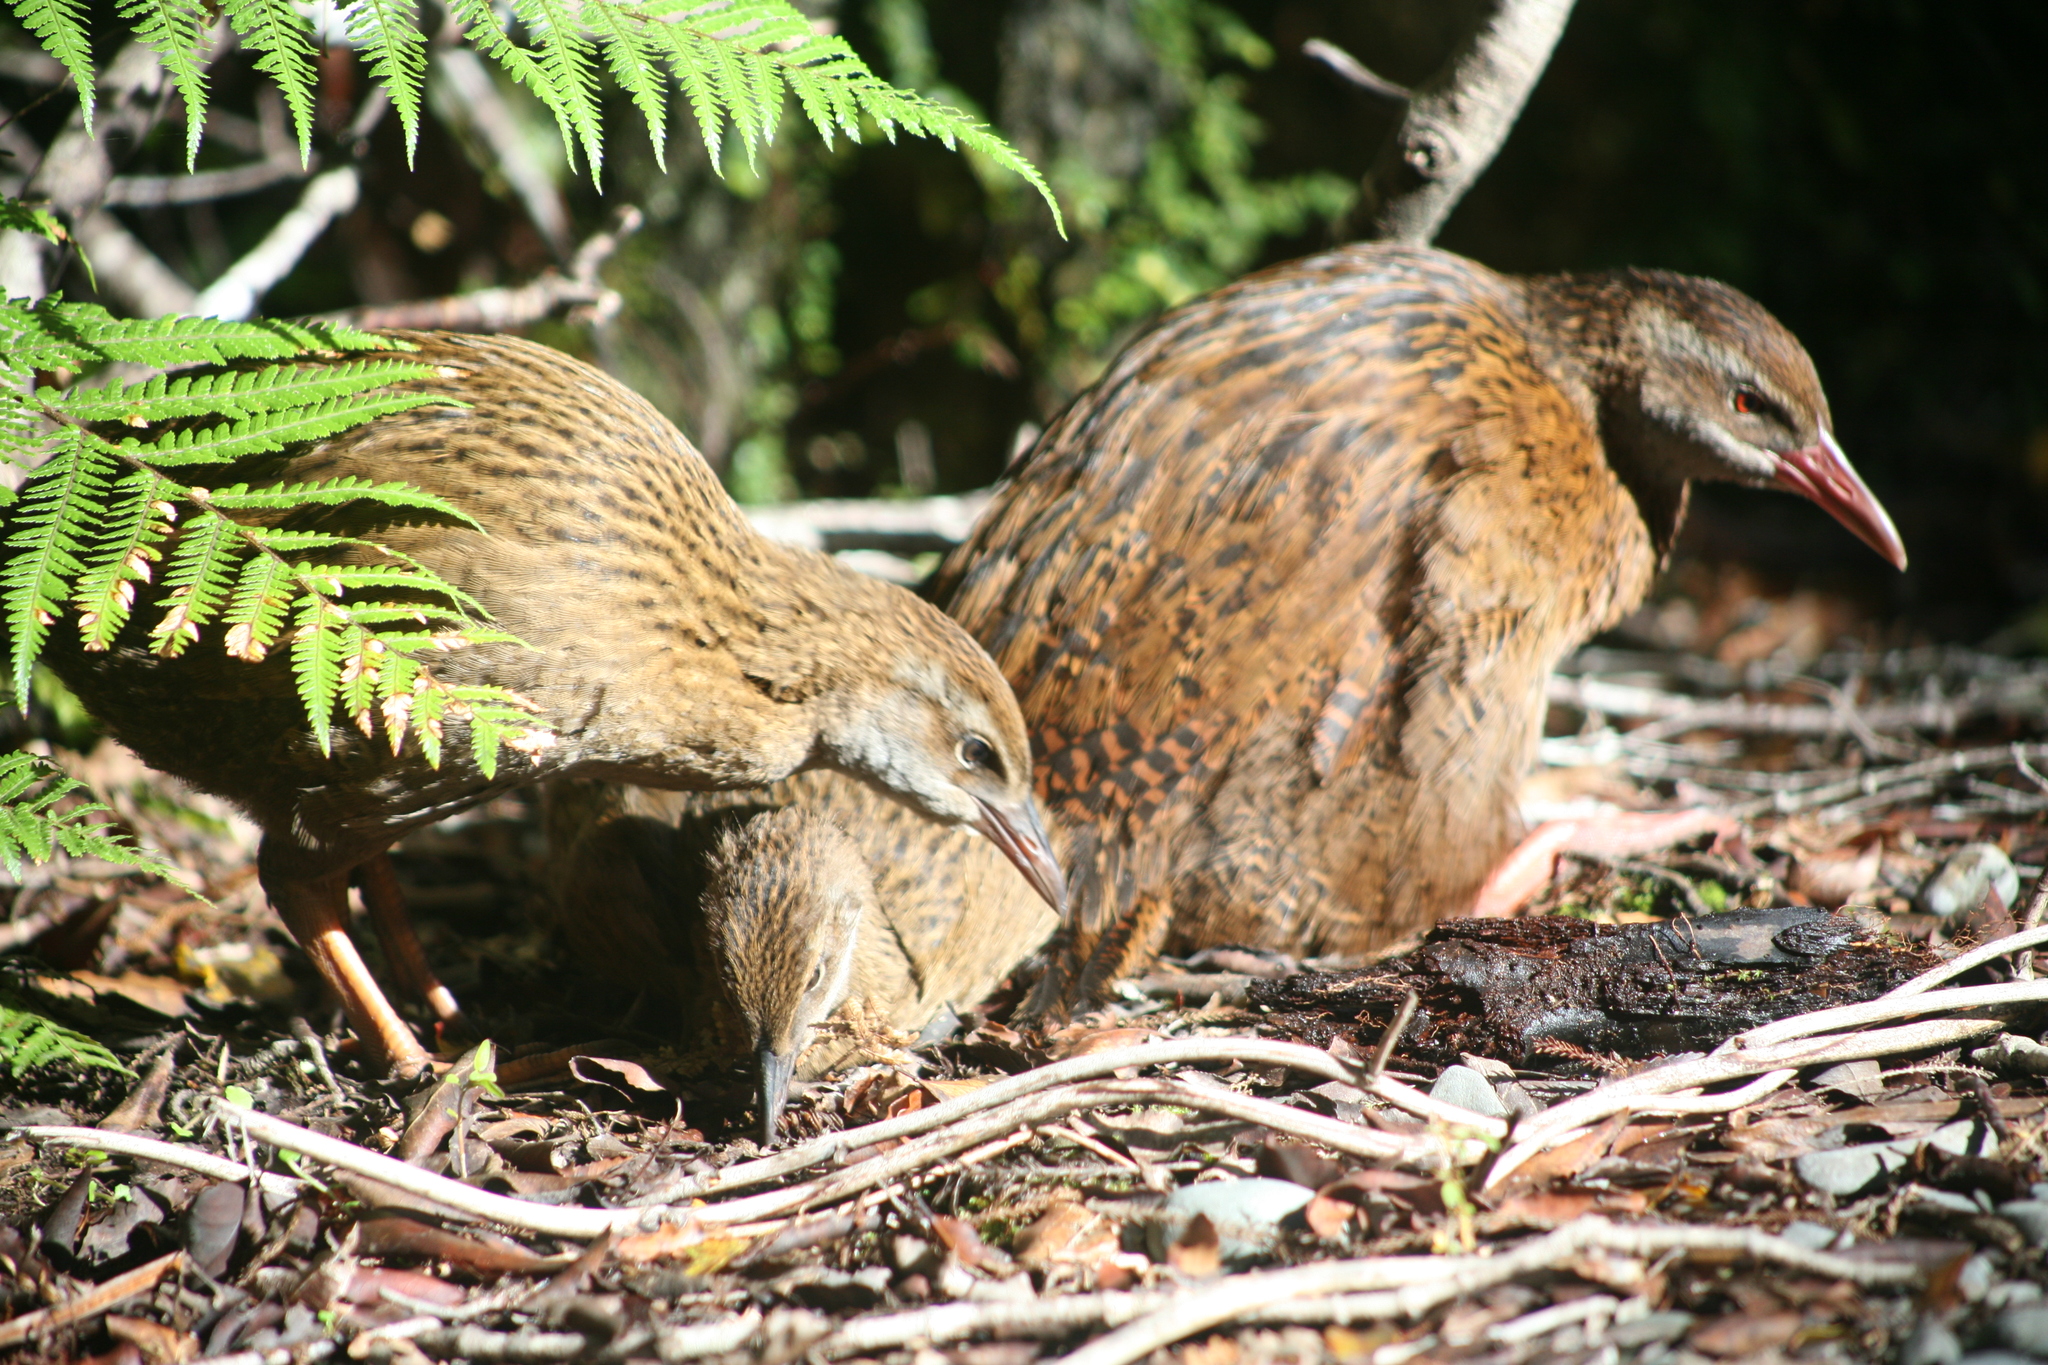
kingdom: Animalia
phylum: Chordata
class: Aves
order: Gruiformes
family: Rallidae
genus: Gallirallus
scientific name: Gallirallus australis
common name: Weka
